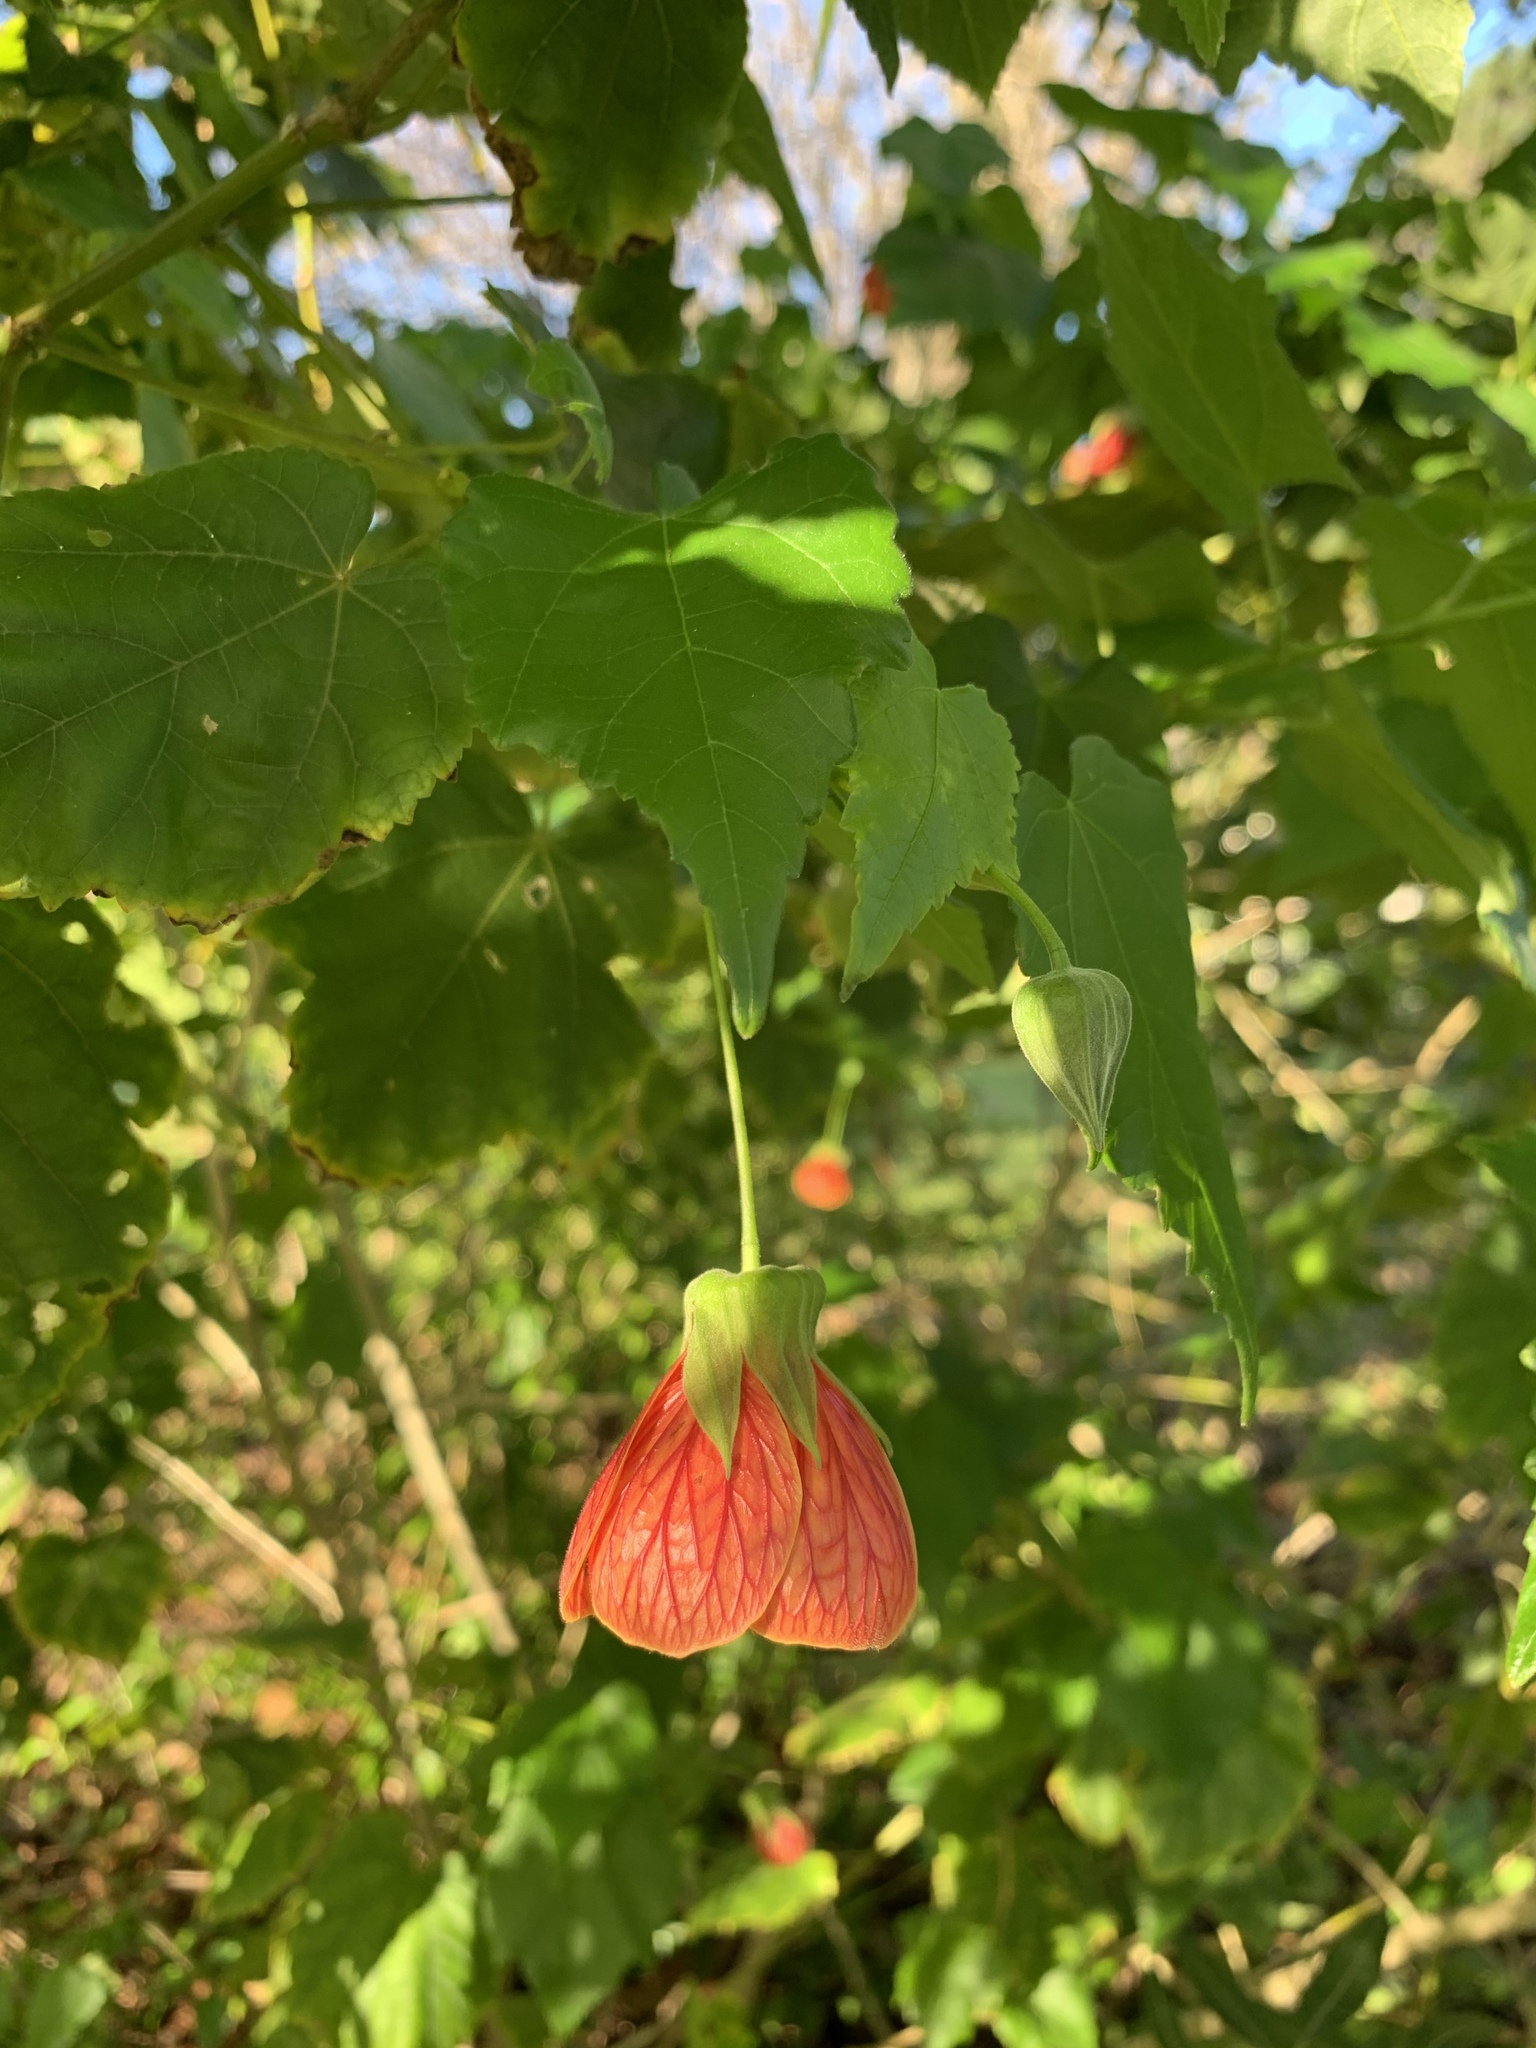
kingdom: Plantae
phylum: Tracheophyta
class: Magnoliopsida
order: Malvales
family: Malvaceae
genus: Callianthe
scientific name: Callianthe picta
